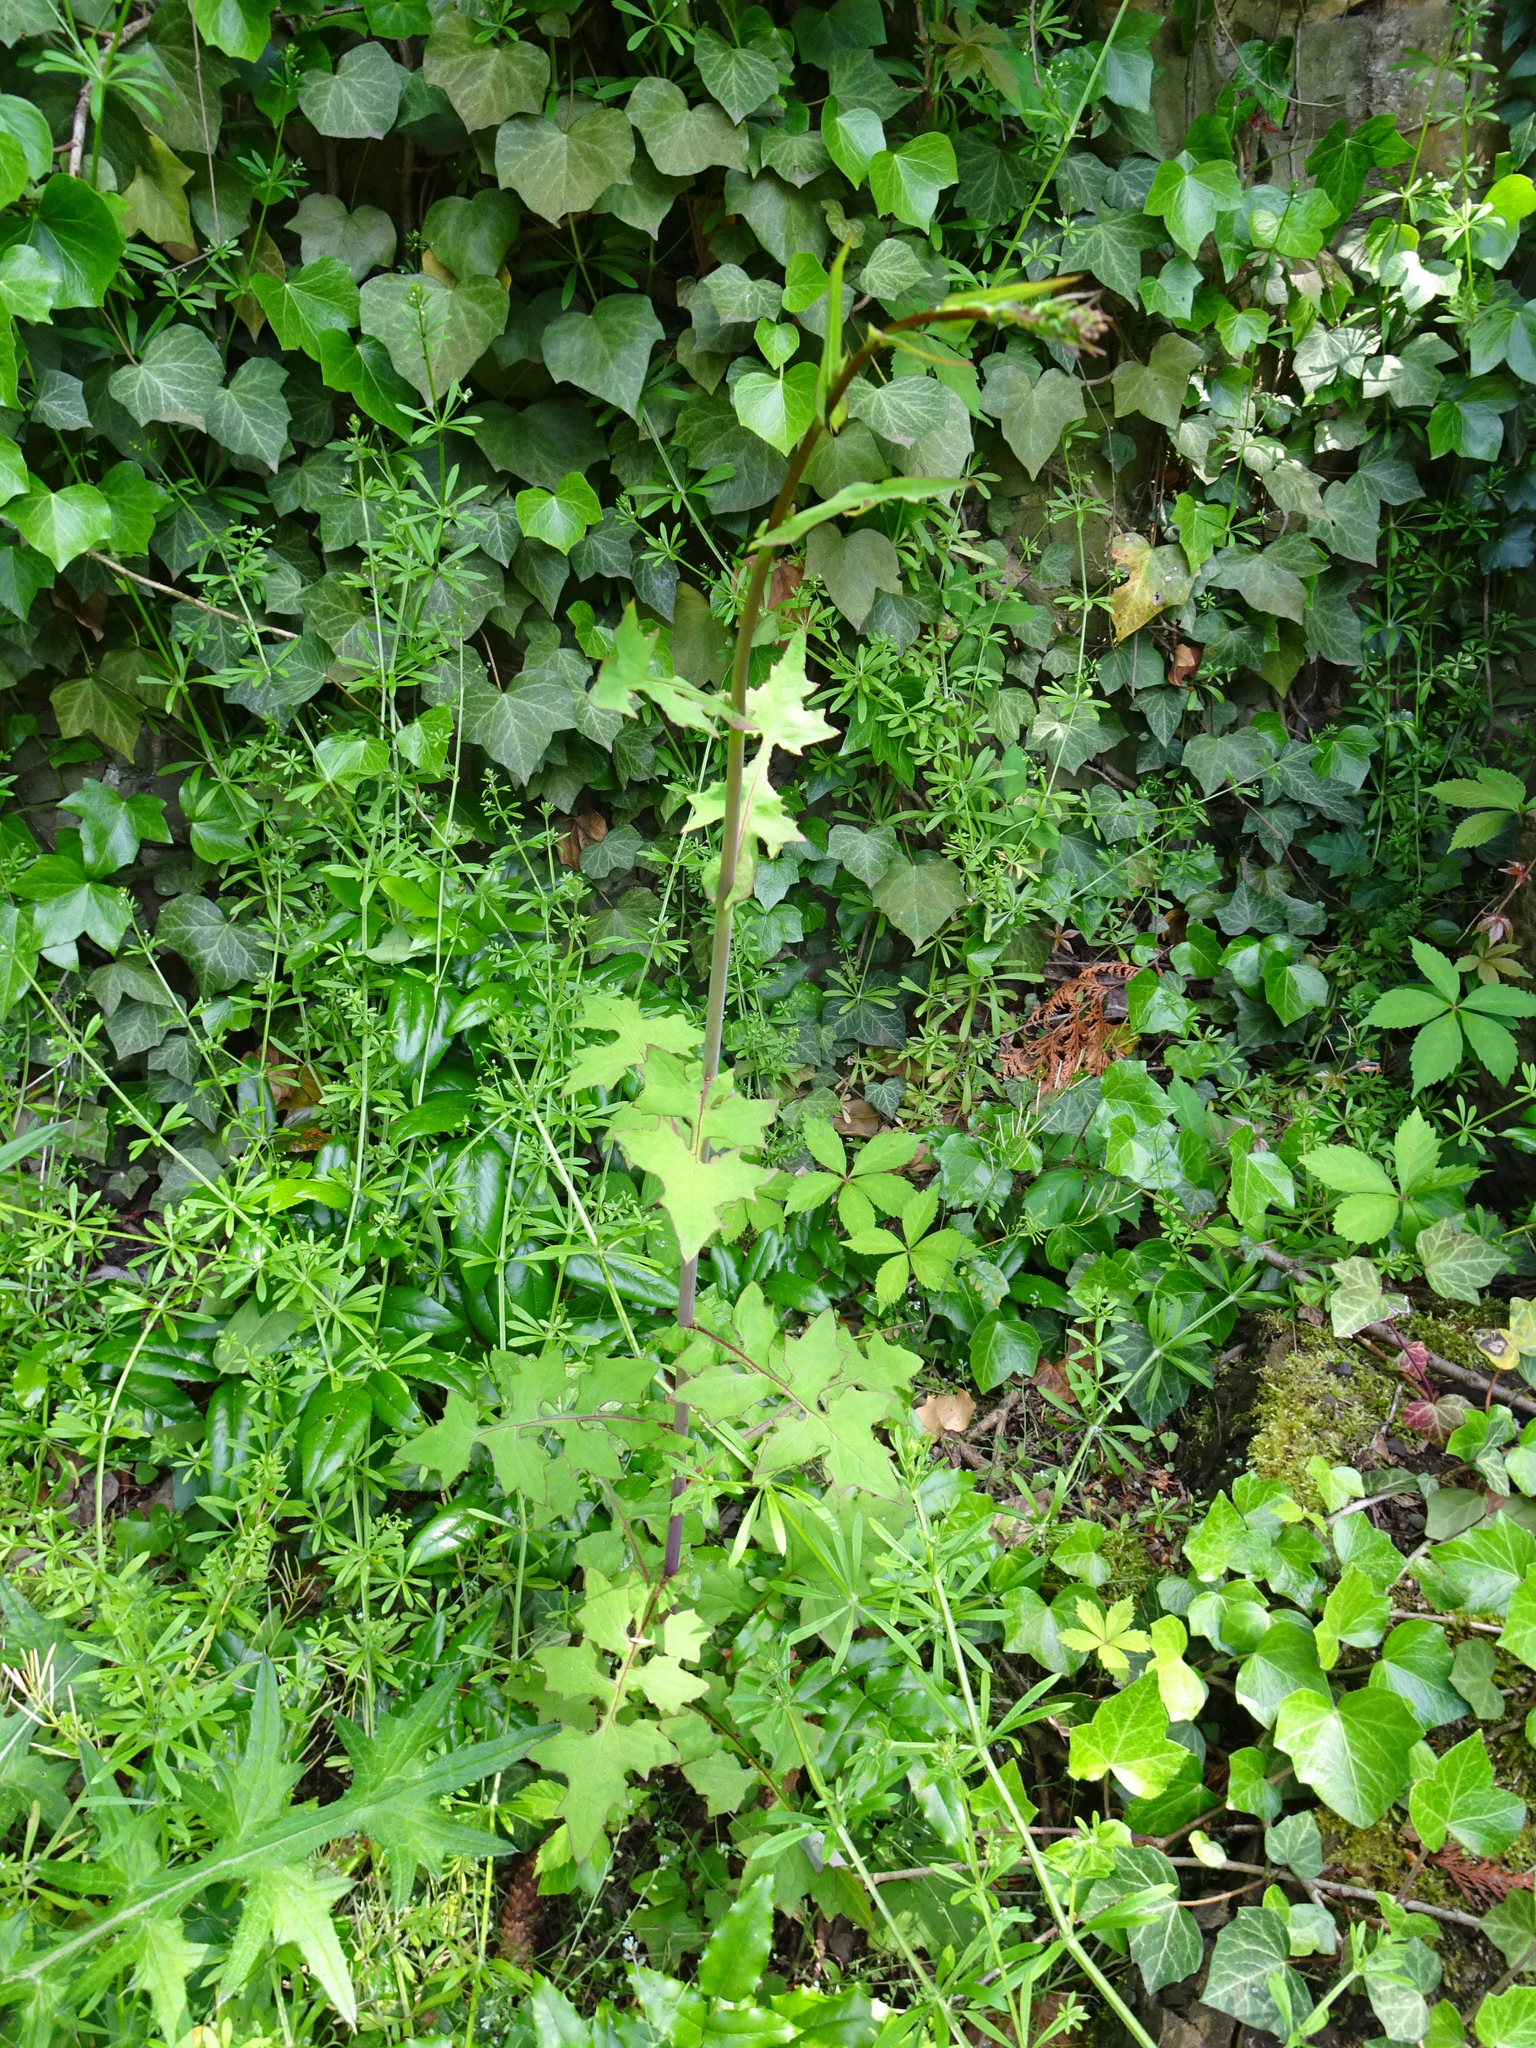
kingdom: Plantae
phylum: Tracheophyta
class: Magnoliopsida
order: Asterales
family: Asteraceae
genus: Mycelis
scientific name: Mycelis muralis
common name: Wall lettuce
